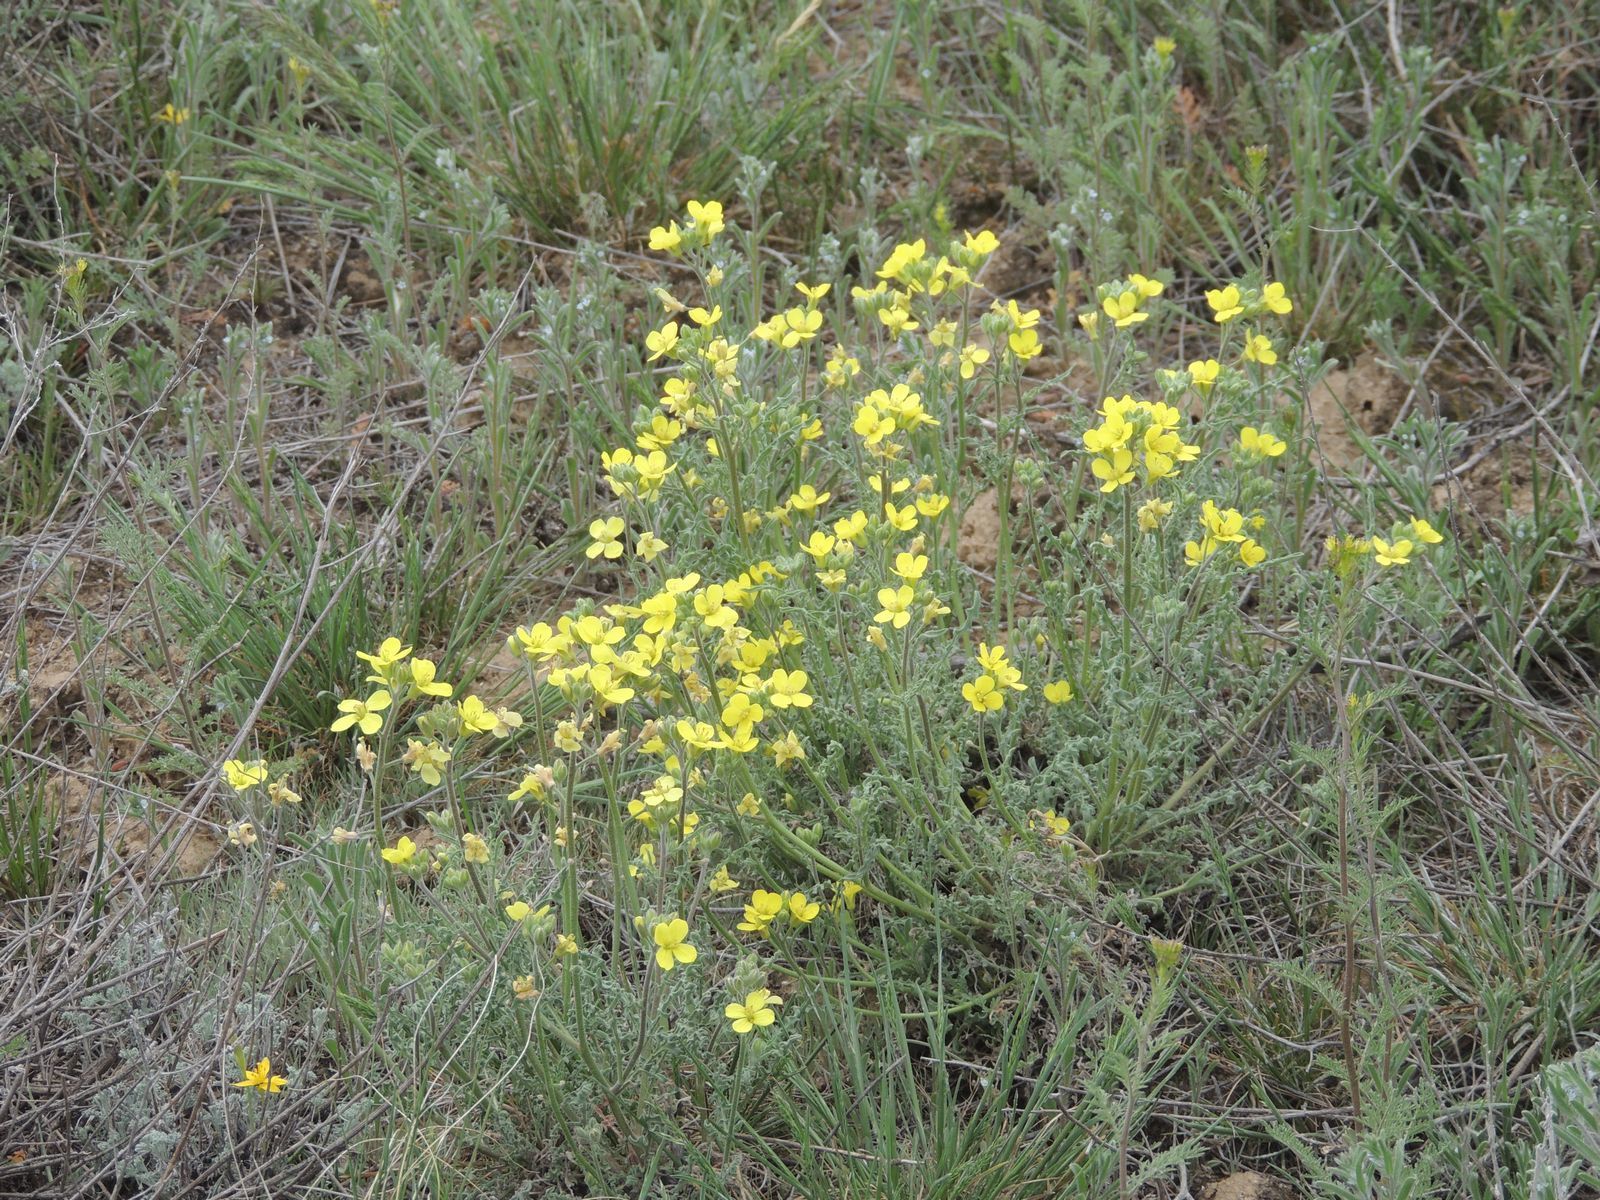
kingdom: Plantae
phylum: Tracheophyta
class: Magnoliopsida
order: Brassicales
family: Brassicaceae
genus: Sterigmostemum
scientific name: Sterigmostemum caspicum
